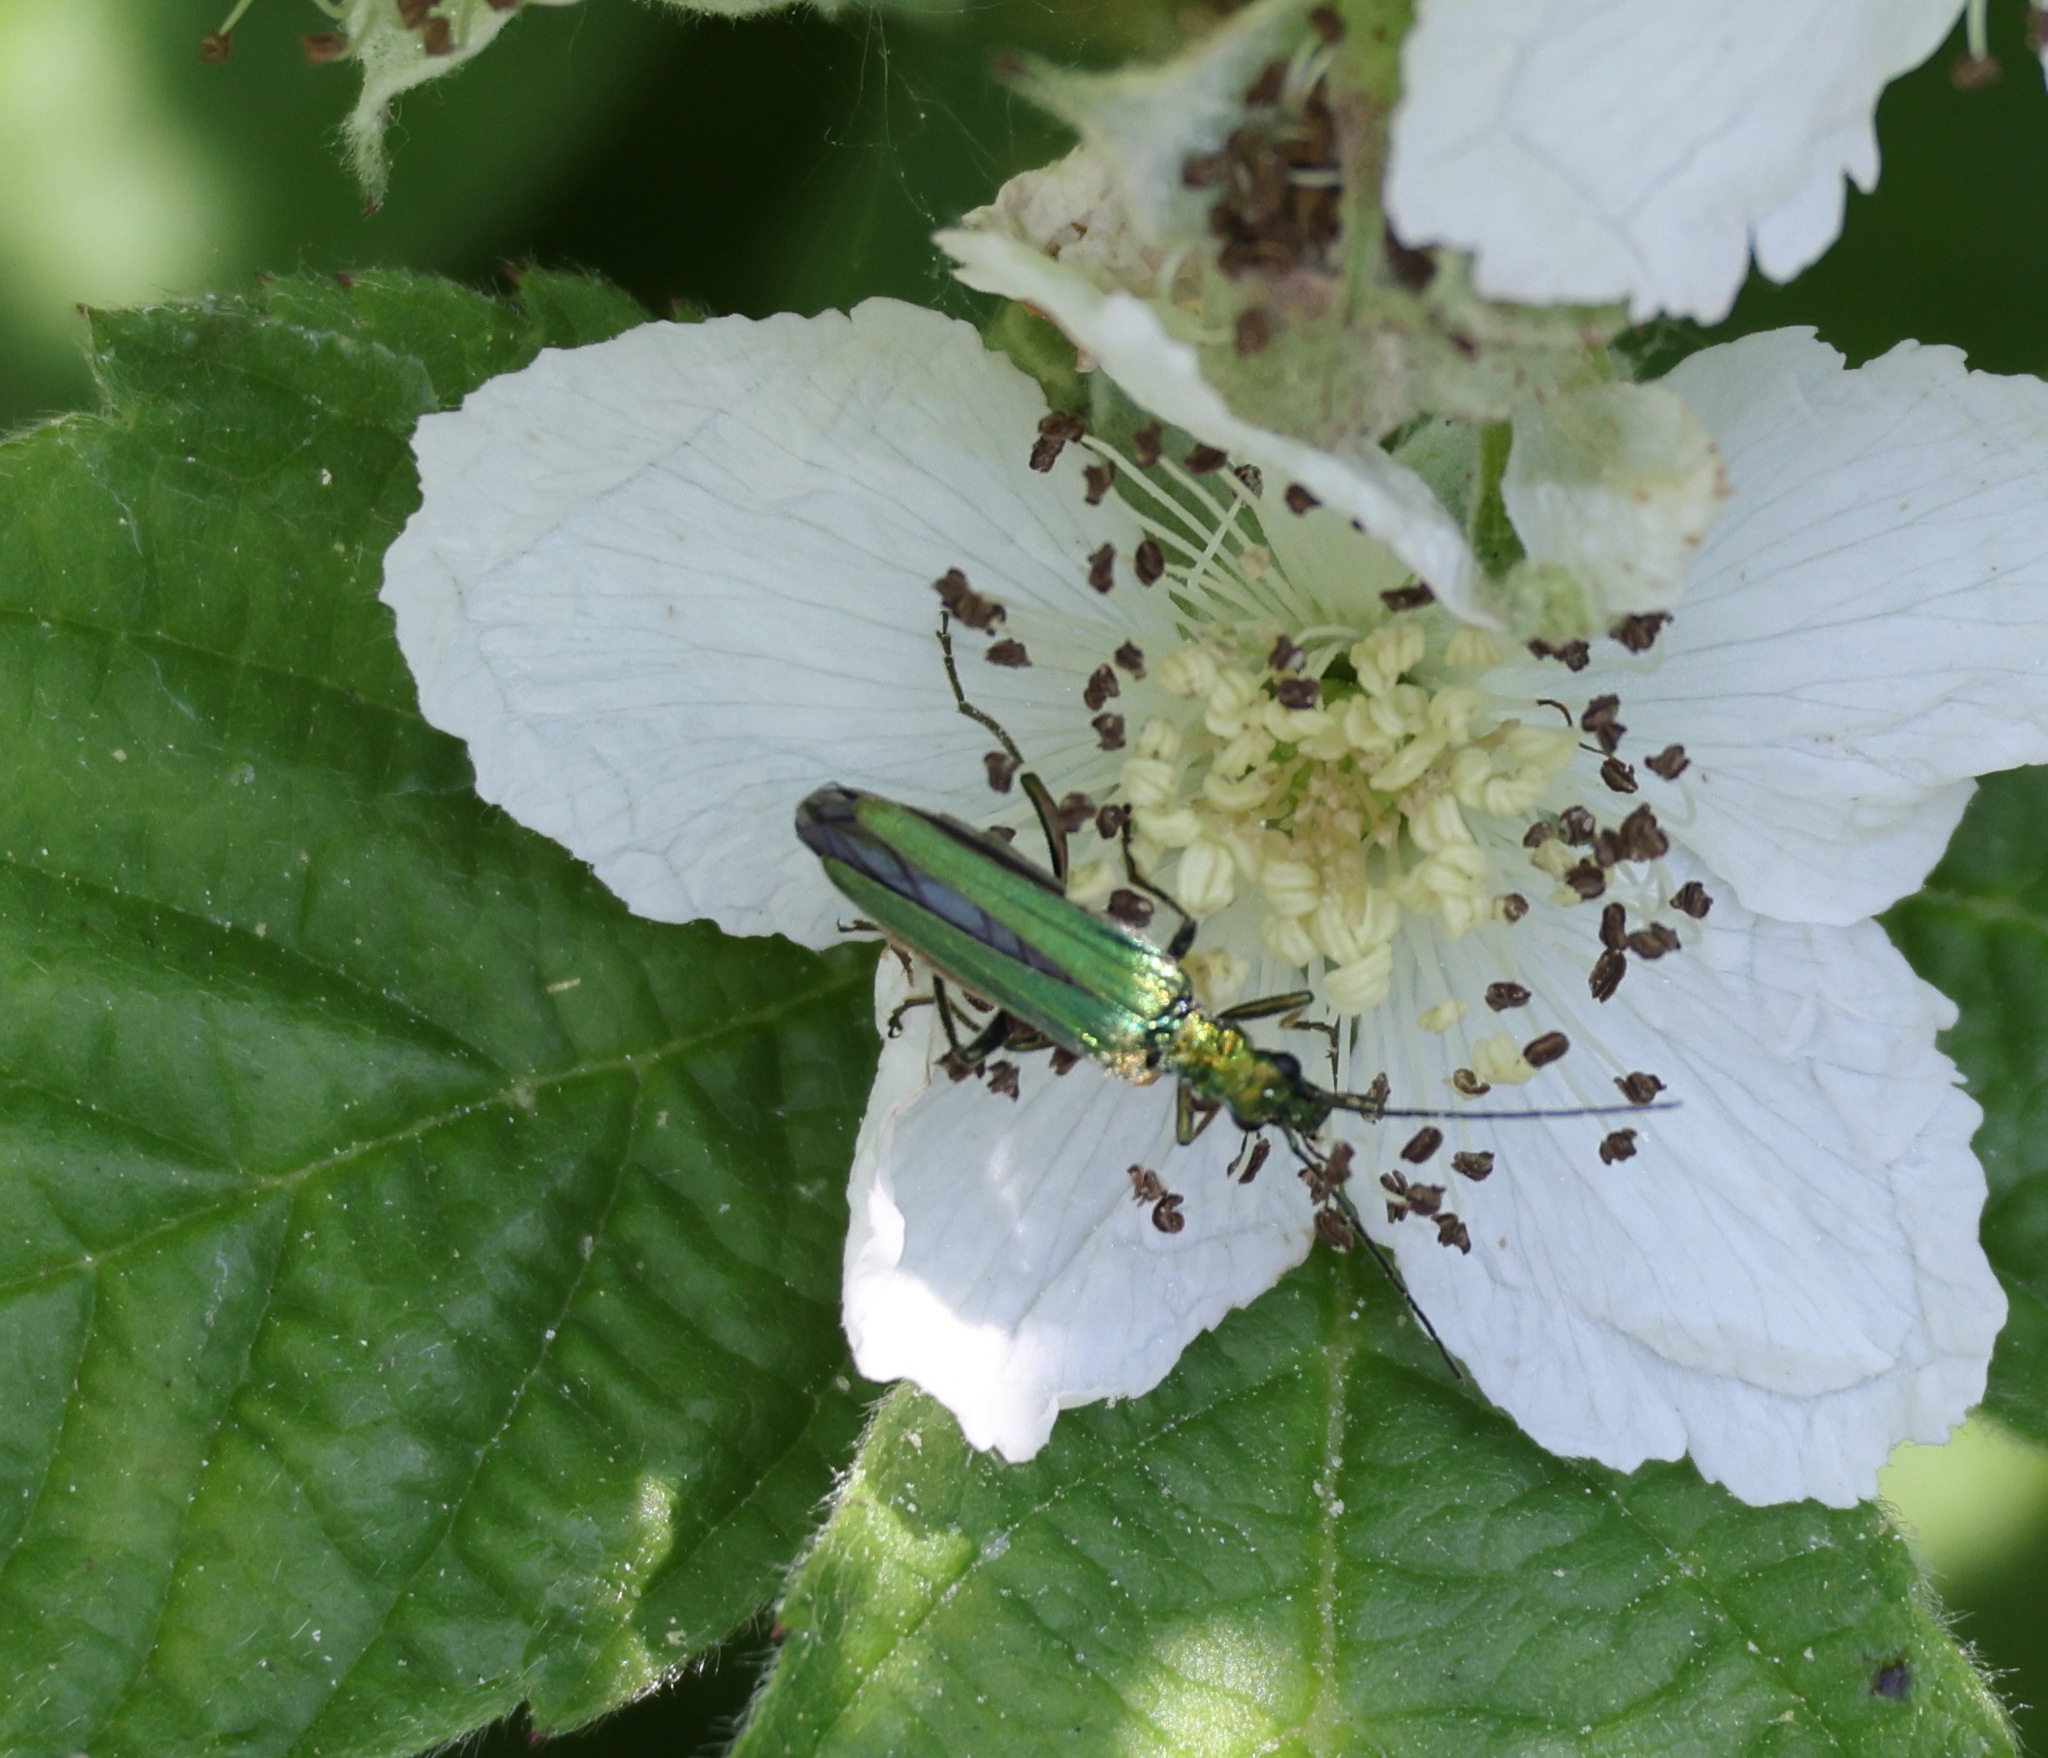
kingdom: Animalia
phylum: Arthropoda
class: Insecta
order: Coleoptera
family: Oedemeridae
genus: Oedemera
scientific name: Oedemera nobilis
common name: Swollen-thighed beetle
